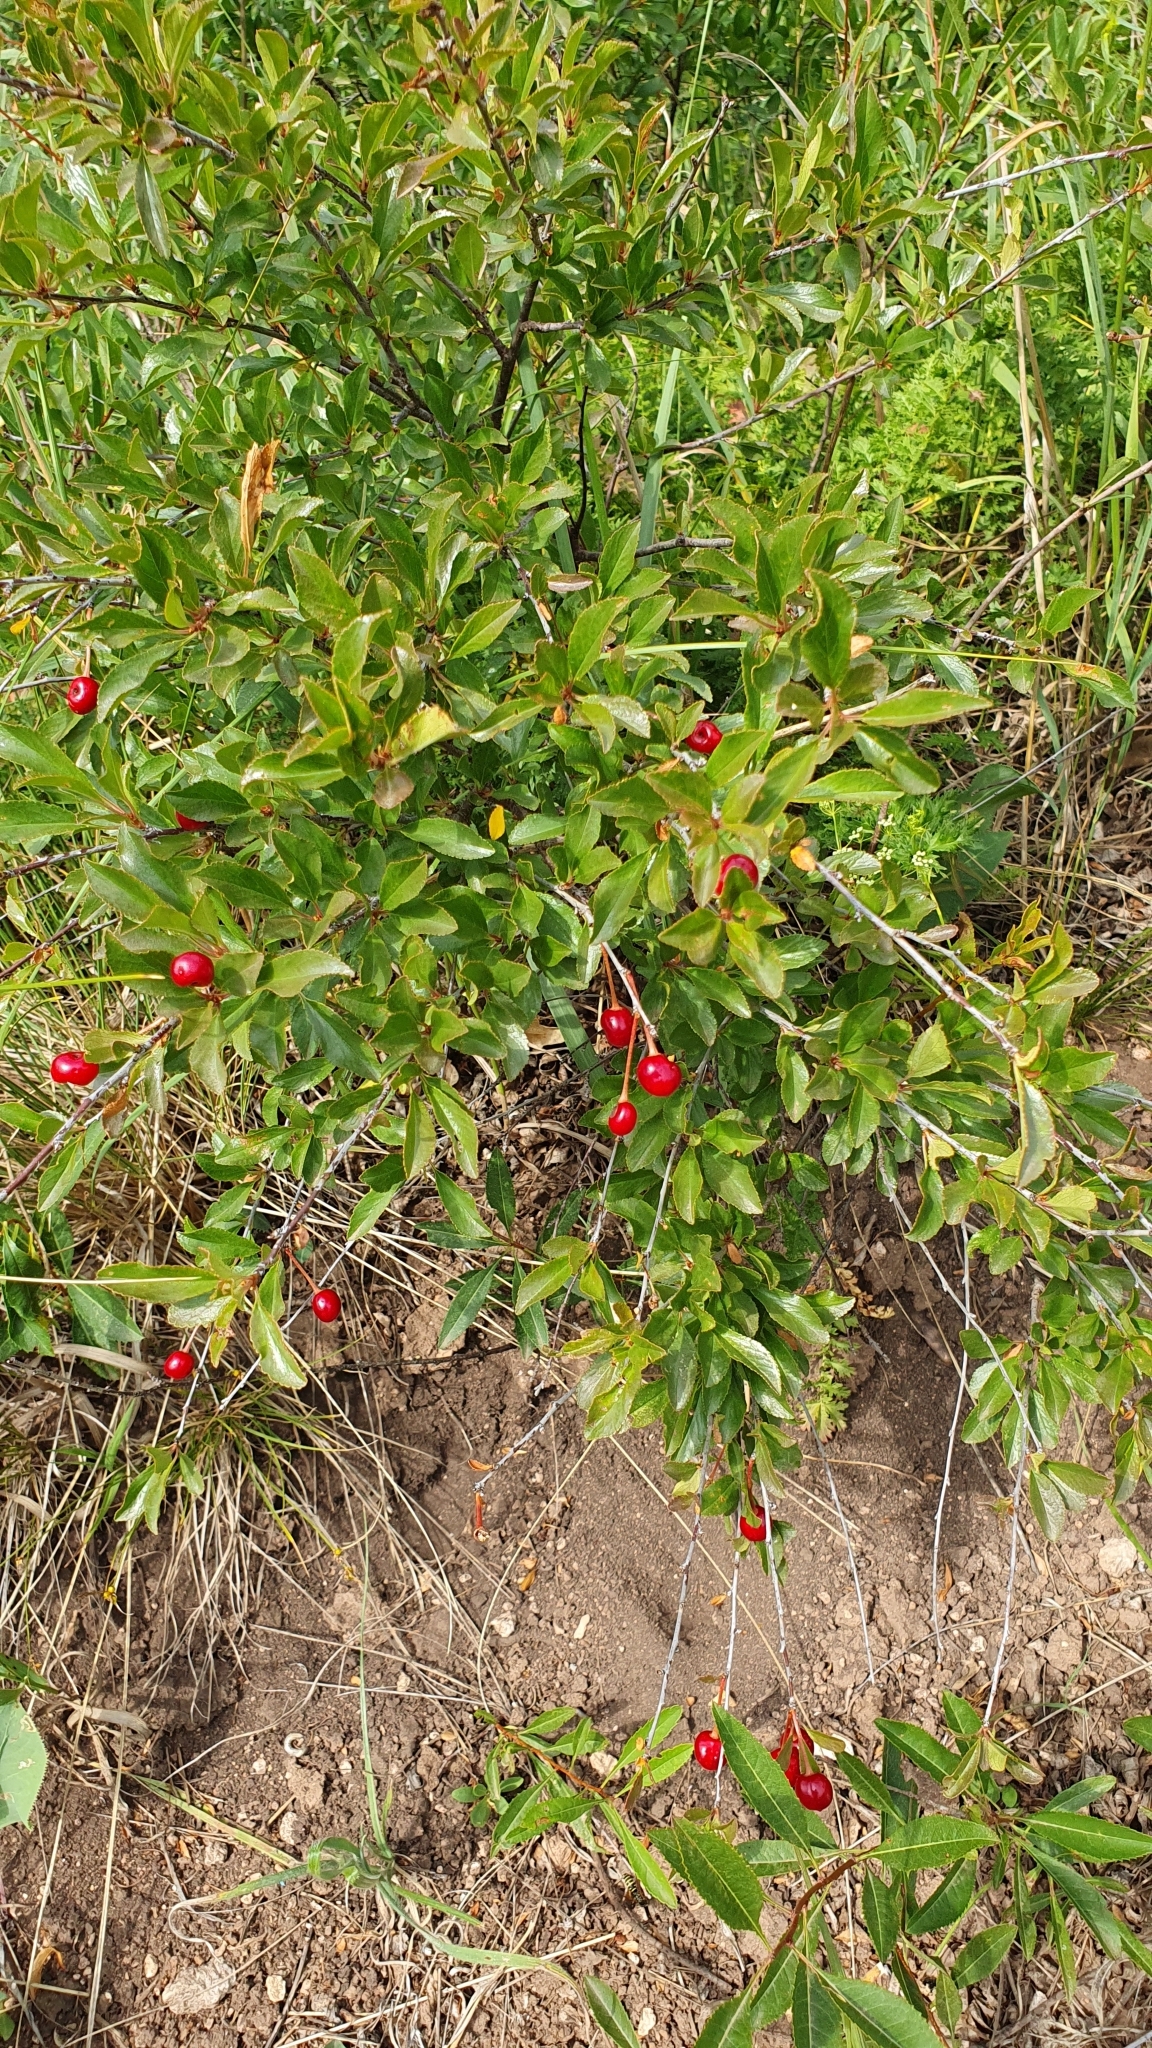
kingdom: Plantae
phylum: Tracheophyta
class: Magnoliopsida
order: Rosales
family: Rosaceae
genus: Prunus
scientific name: Prunus fruticosa
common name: European dwarf cherry
